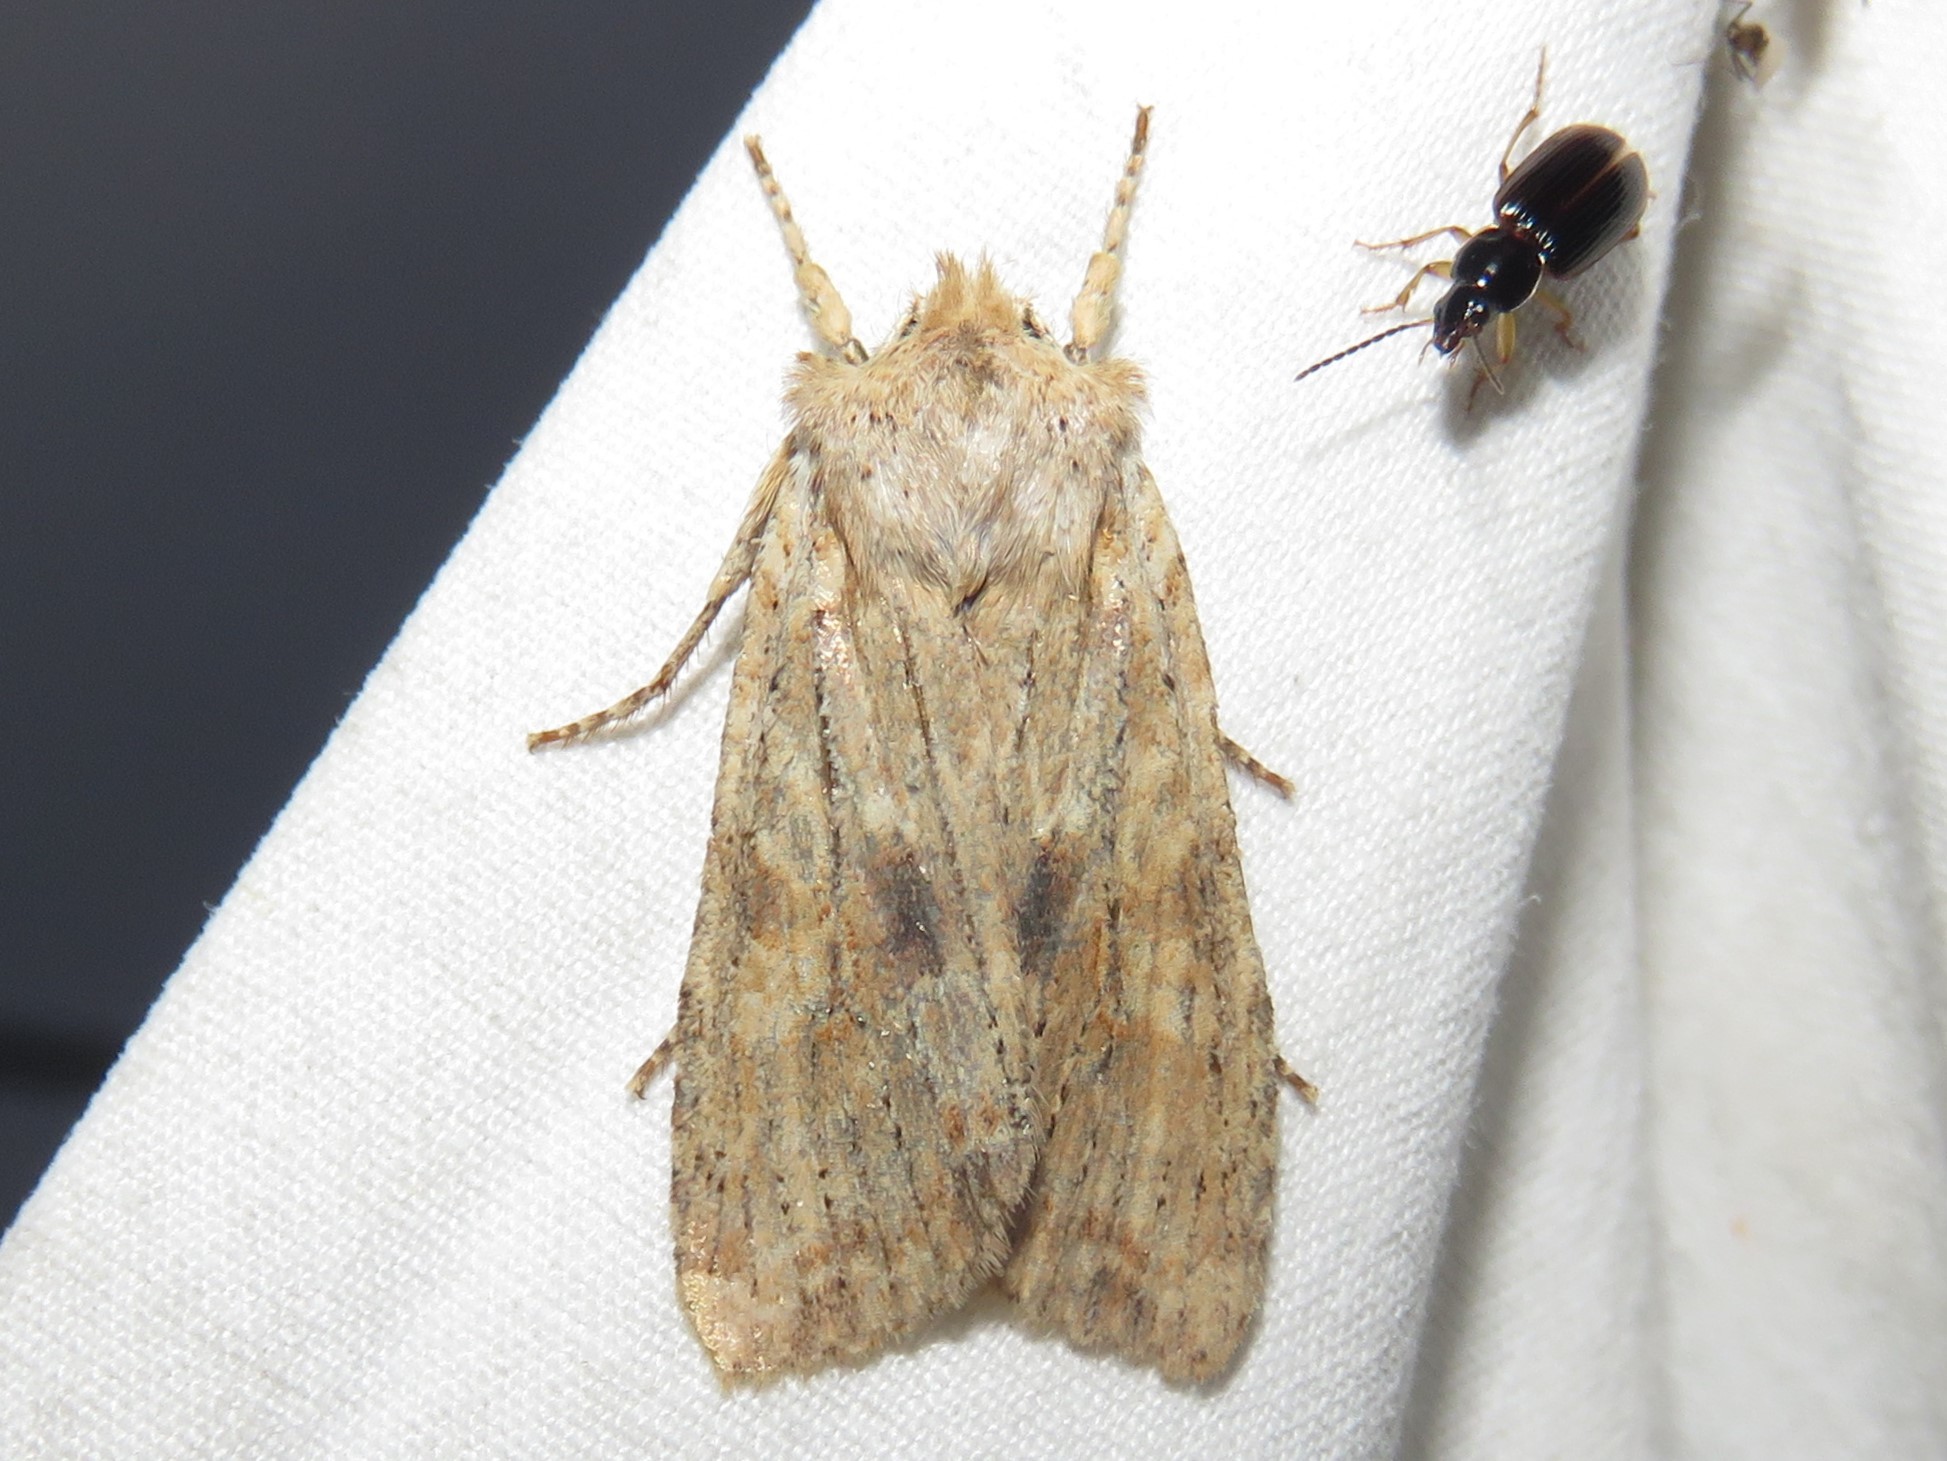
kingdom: Animalia
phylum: Arthropoda
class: Insecta
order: Lepidoptera
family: Noctuidae
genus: Lithophane
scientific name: Lithophane innominata
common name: Nameless pinion moth
